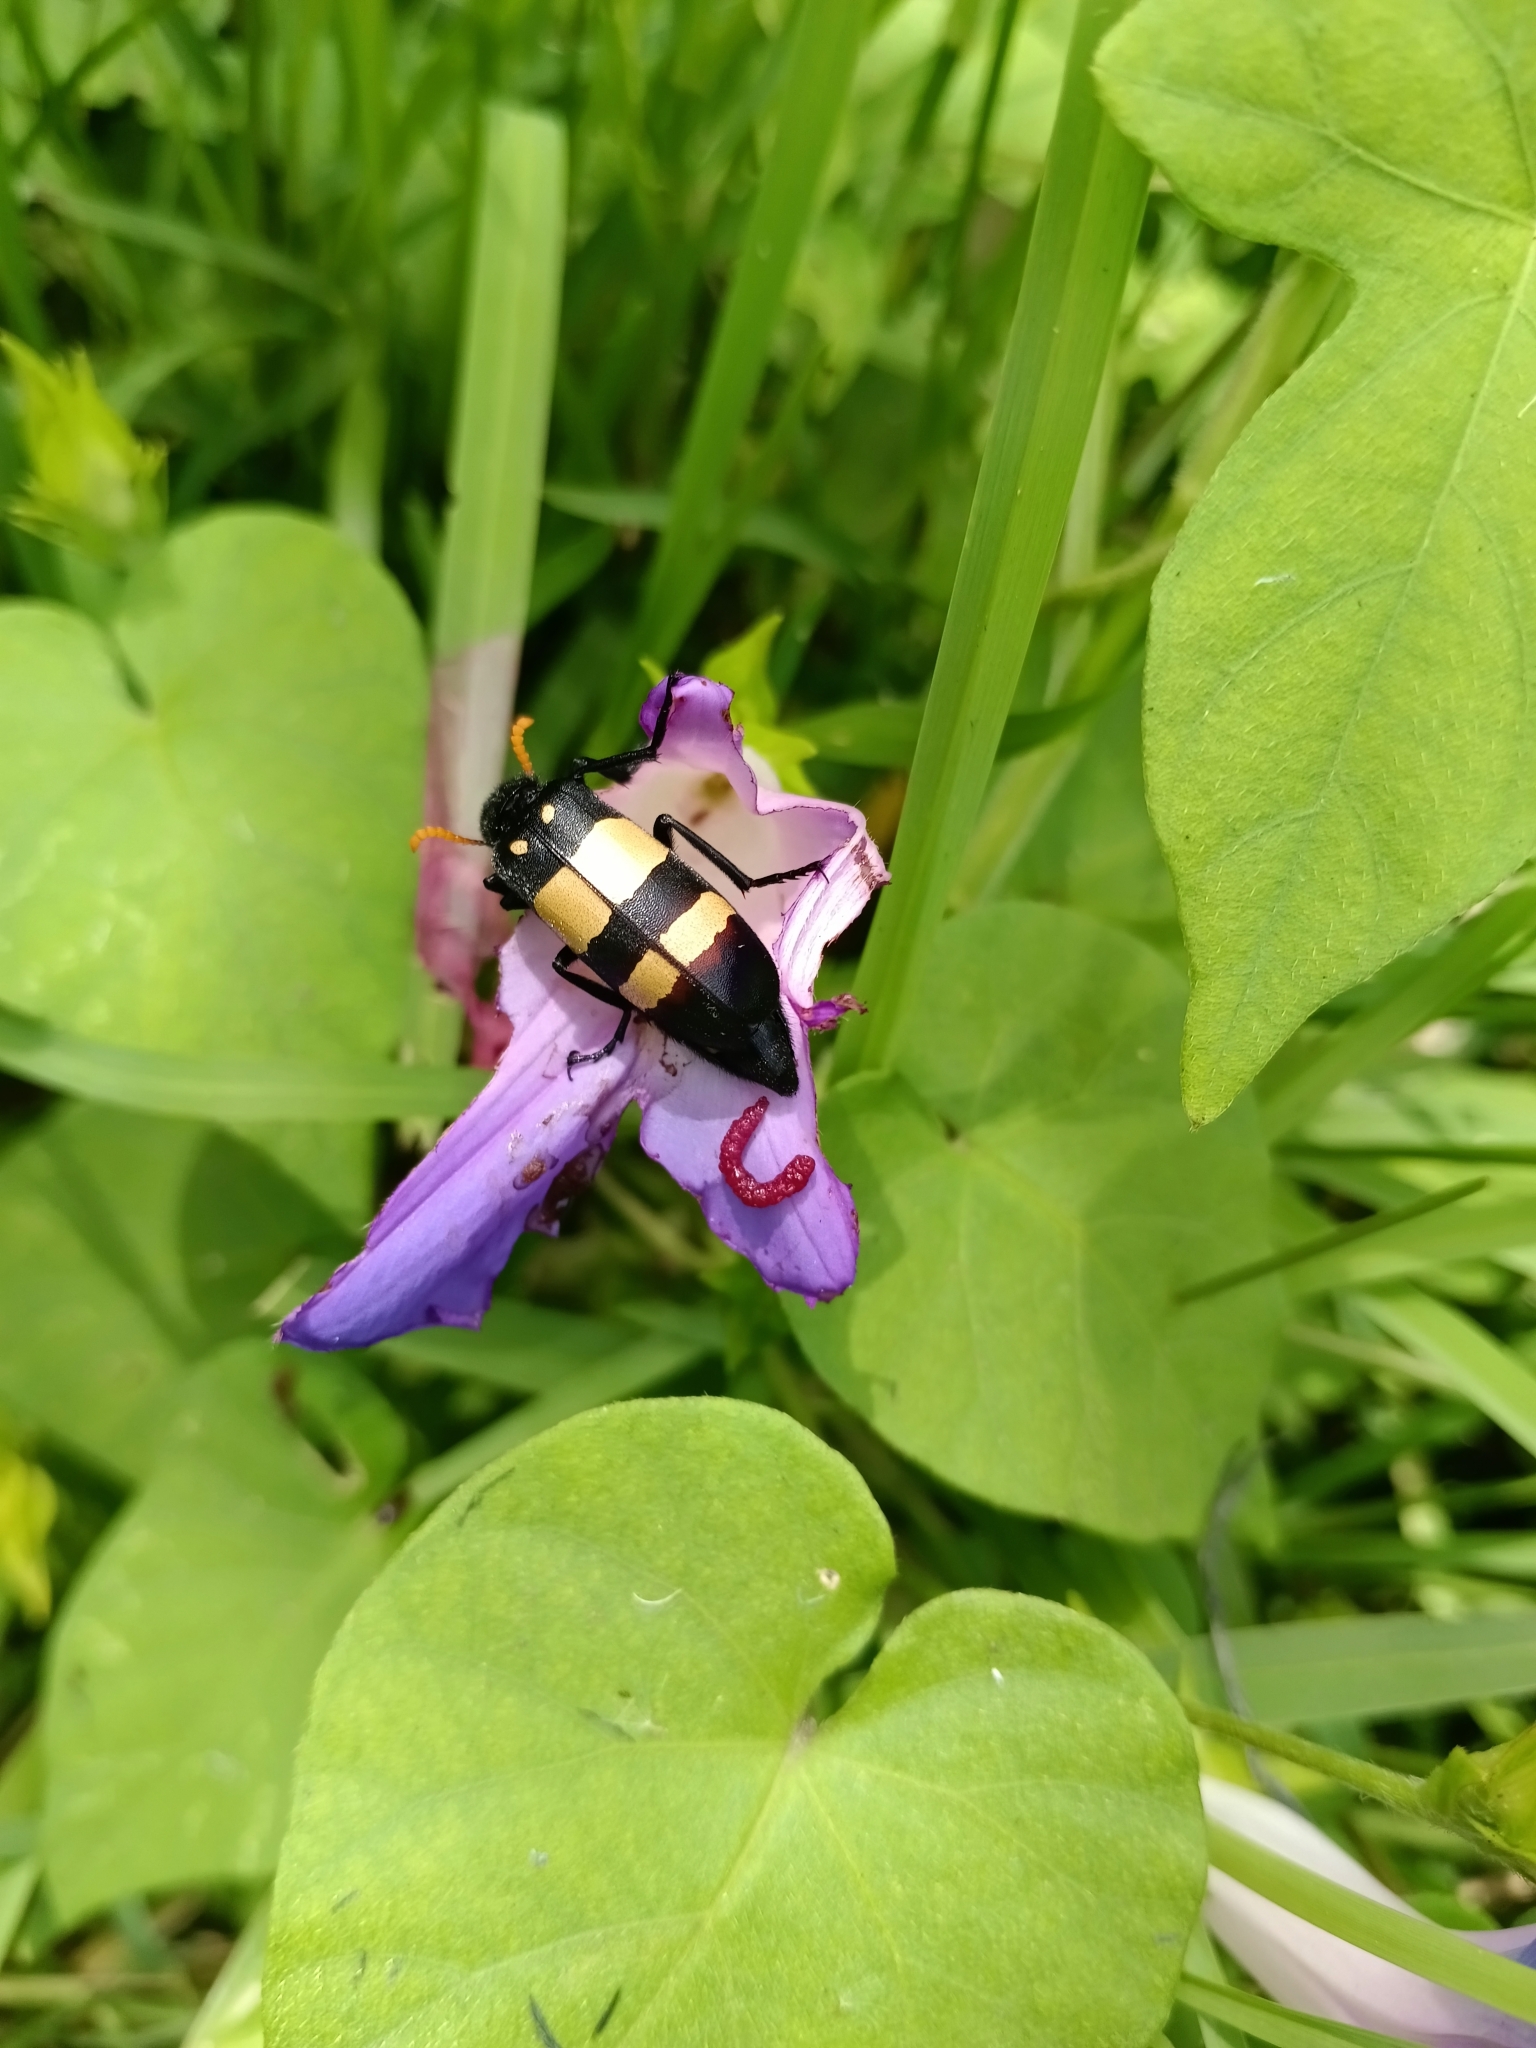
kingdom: Animalia
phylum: Arthropoda
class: Insecta
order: Coleoptera
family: Meloidae
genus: Hycleus
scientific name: Hycleus
